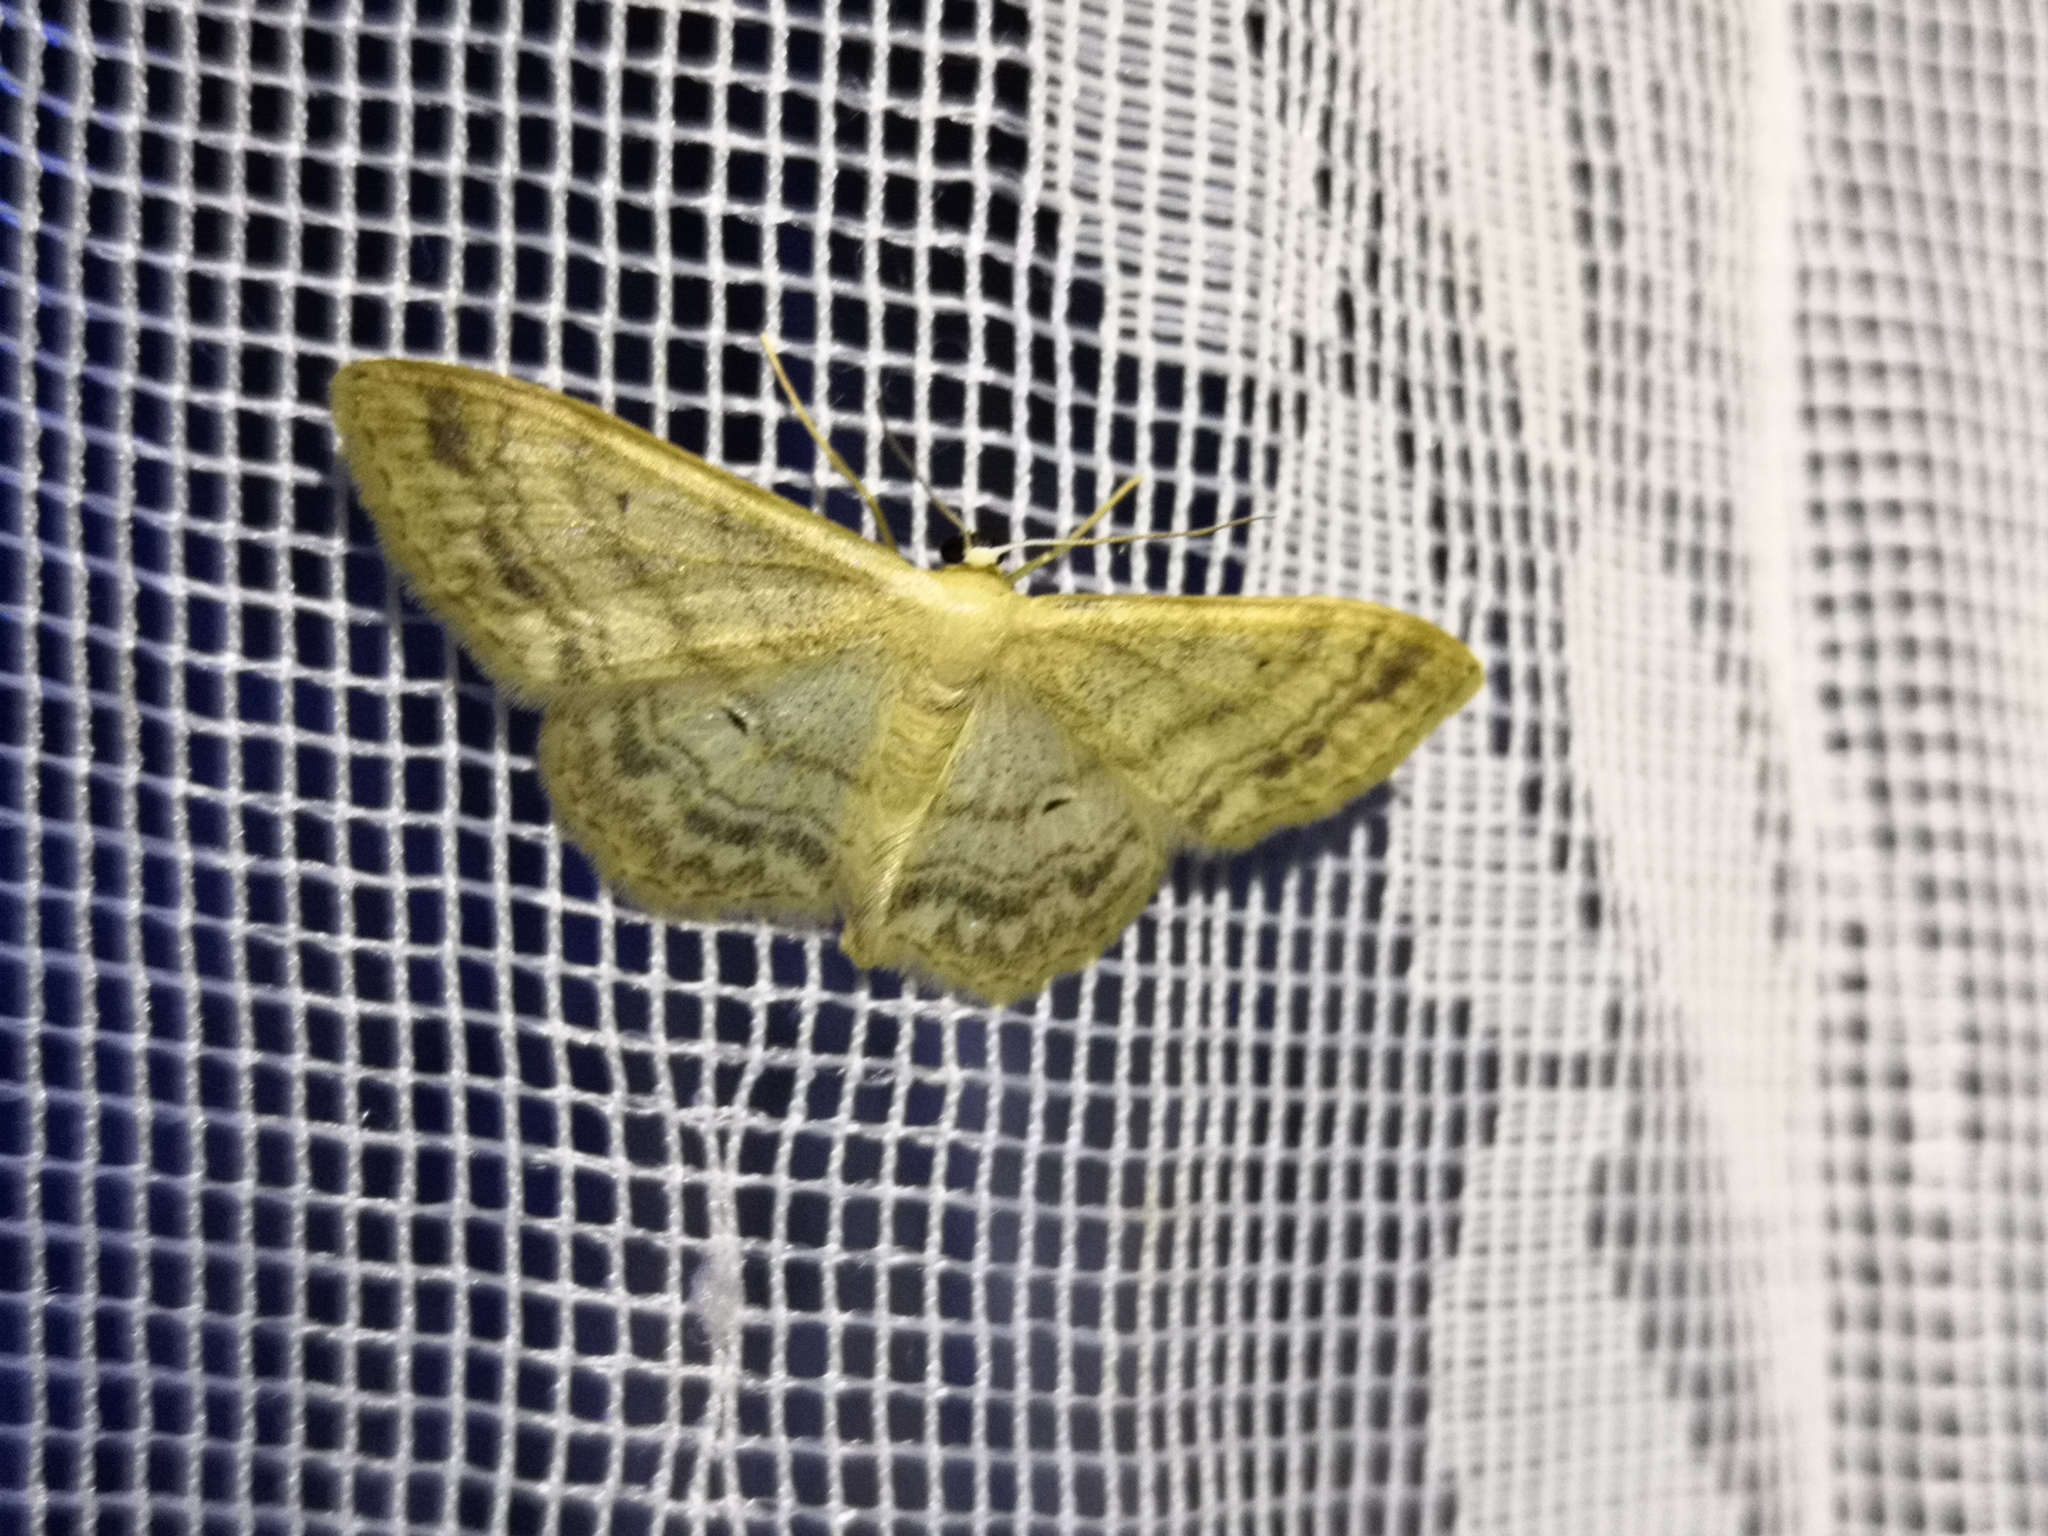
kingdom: Animalia
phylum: Arthropoda
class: Insecta
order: Lepidoptera
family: Geometridae
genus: Idaea
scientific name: Idaea maritimaria
